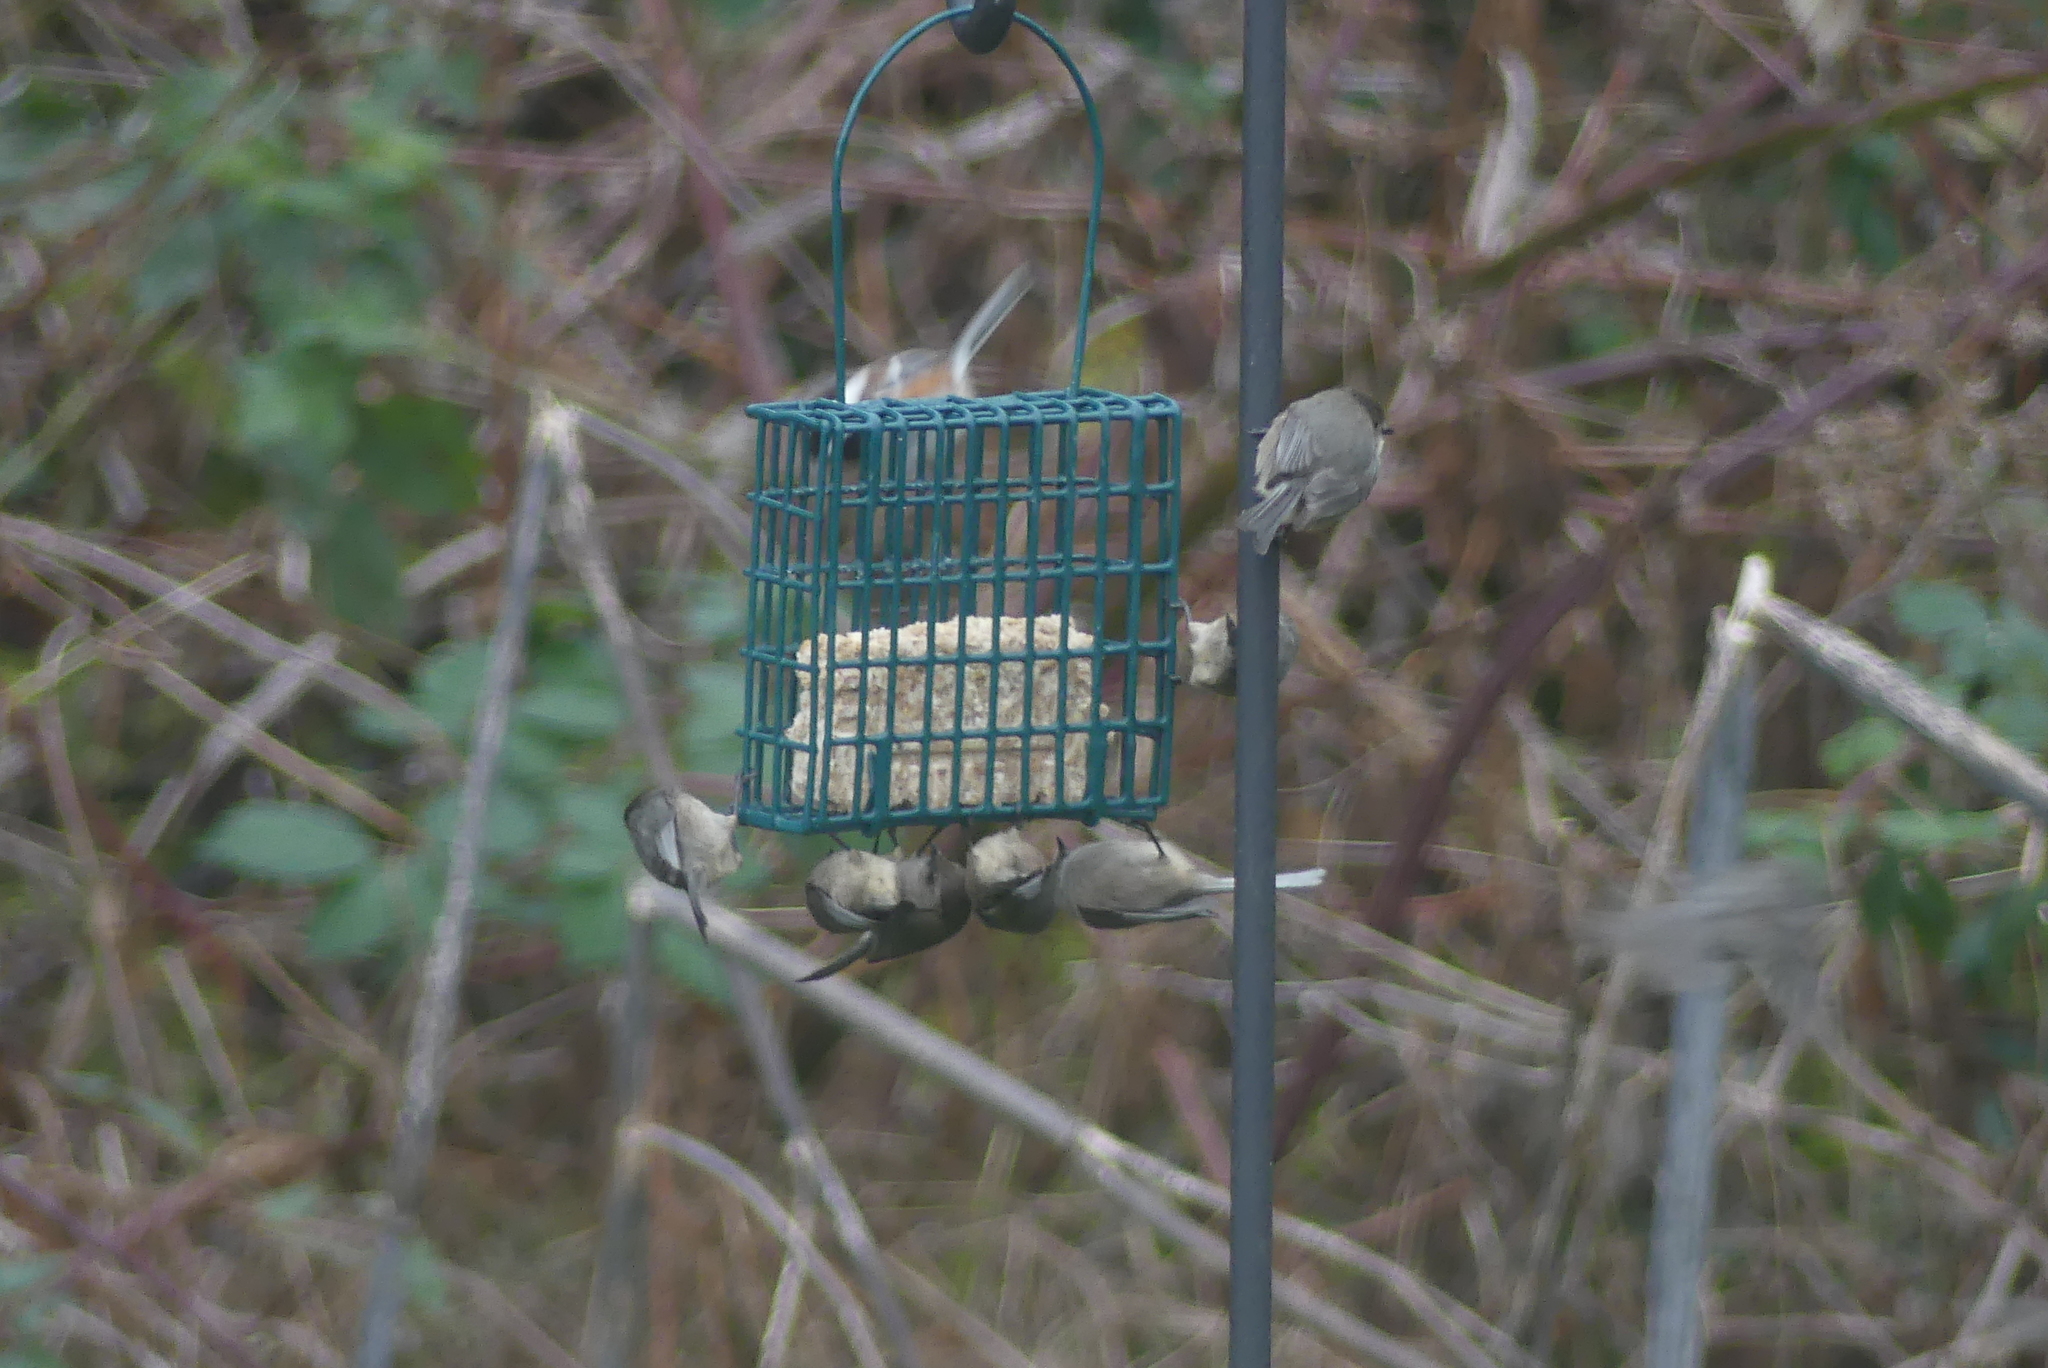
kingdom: Animalia
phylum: Chordata
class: Aves
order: Passeriformes
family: Aegithalidae
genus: Psaltriparus
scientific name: Psaltriparus minimus
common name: American bushtit
